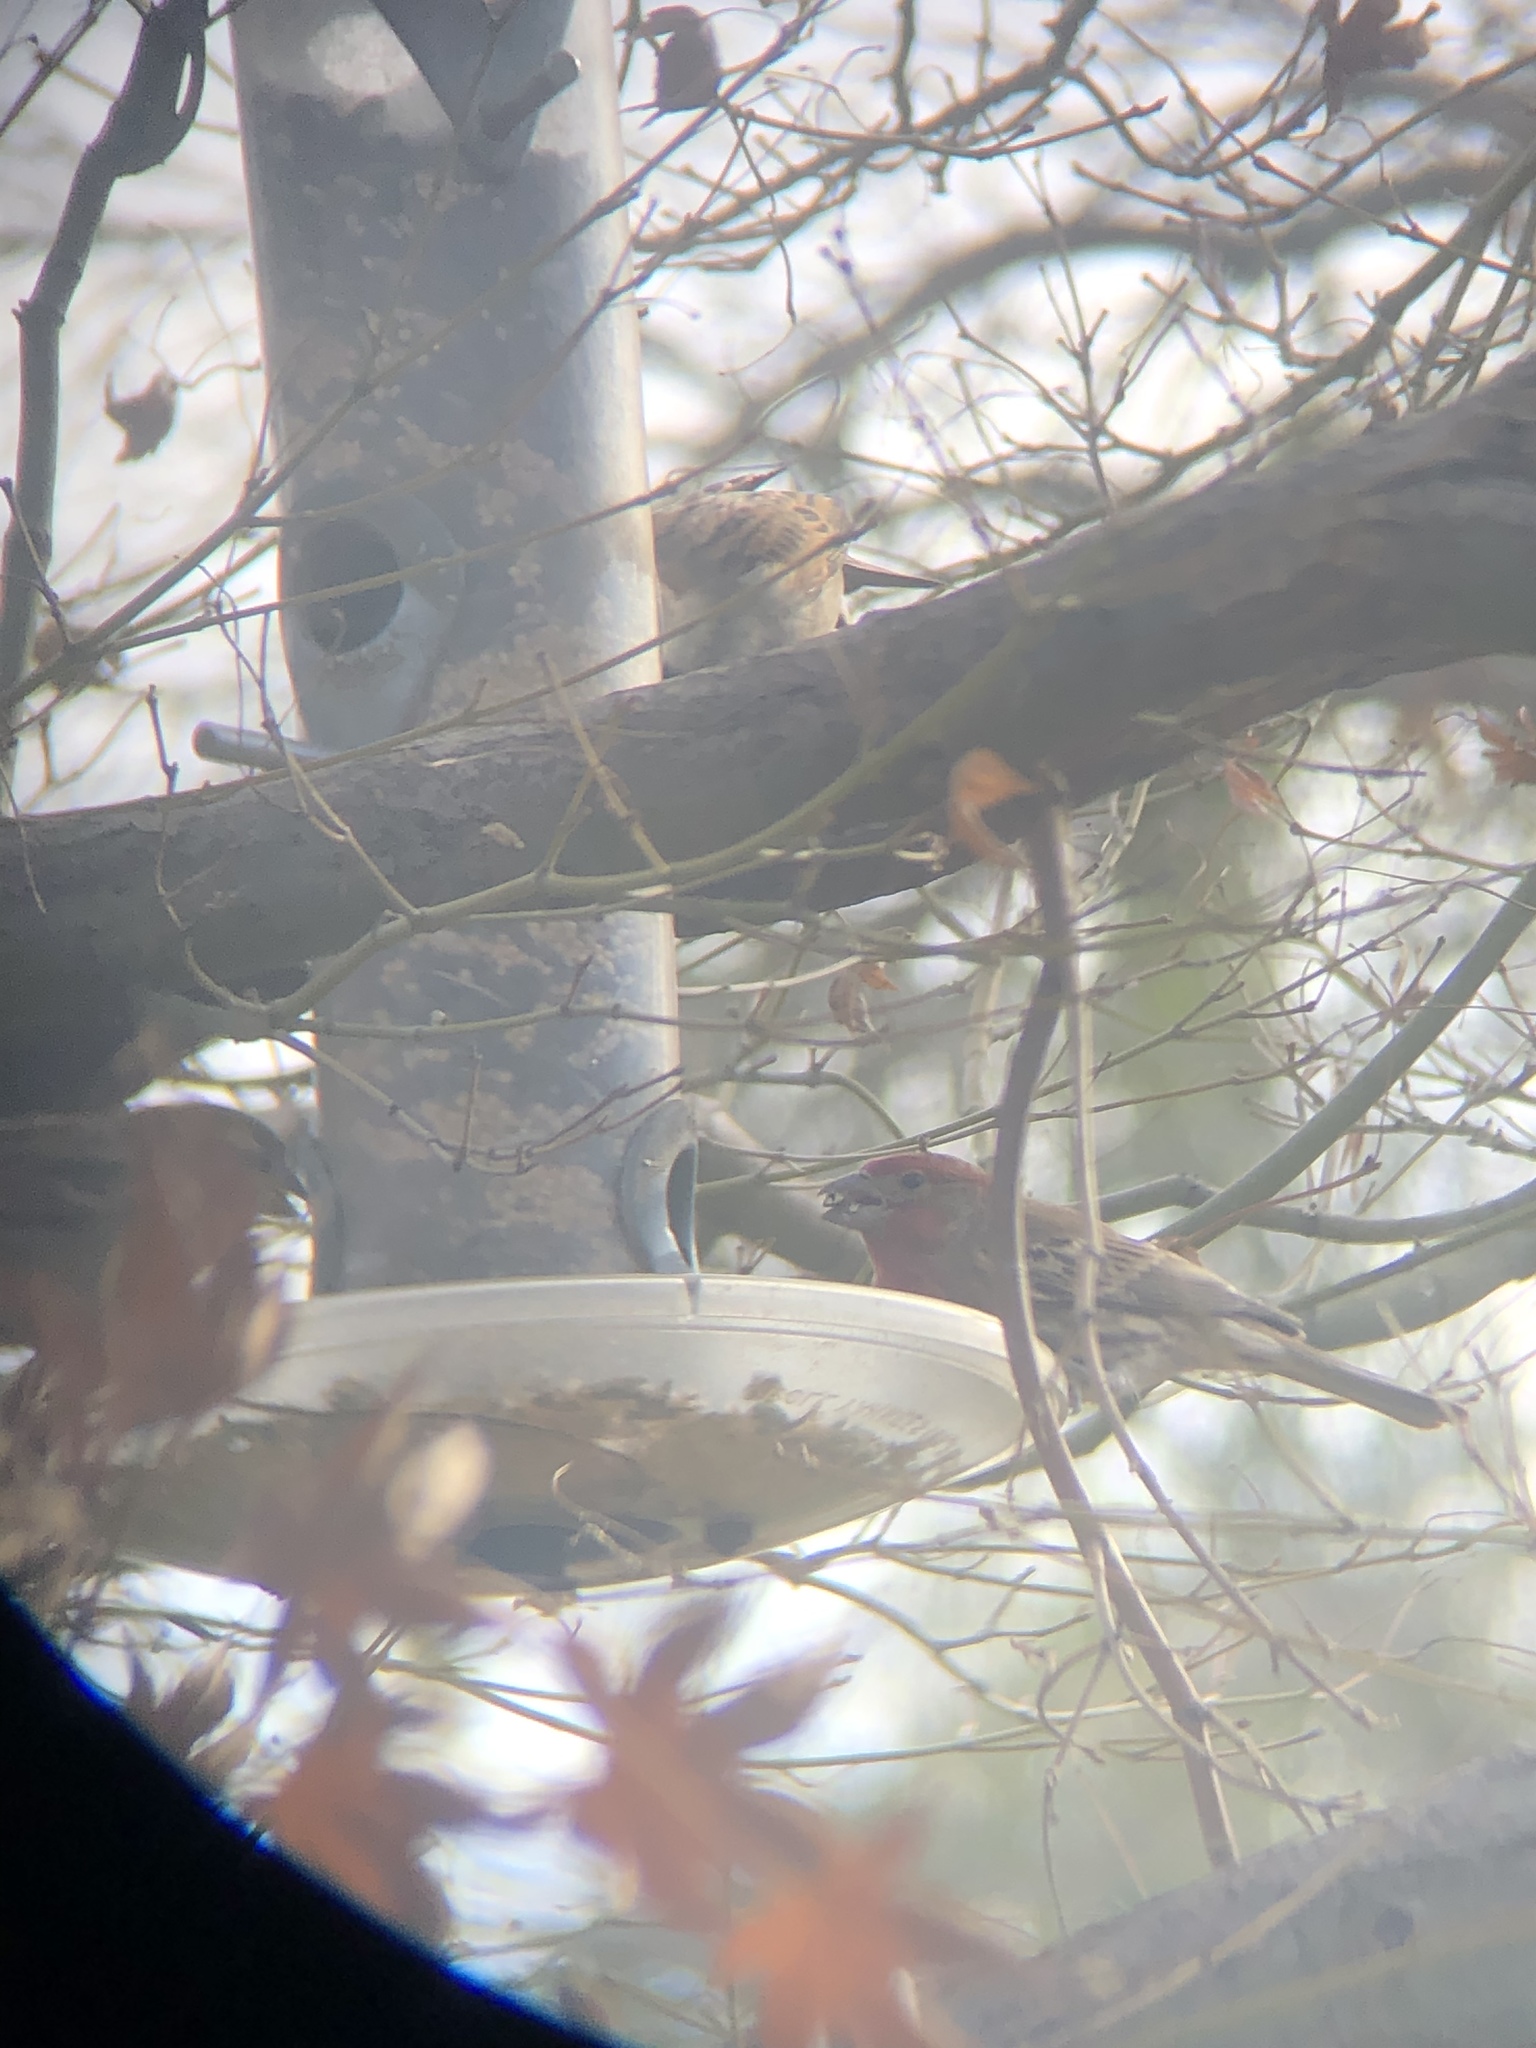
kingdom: Animalia
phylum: Chordata
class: Aves
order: Passeriformes
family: Fringillidae
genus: Haemorhous
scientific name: Haemorhous mexicanus
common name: House finch
